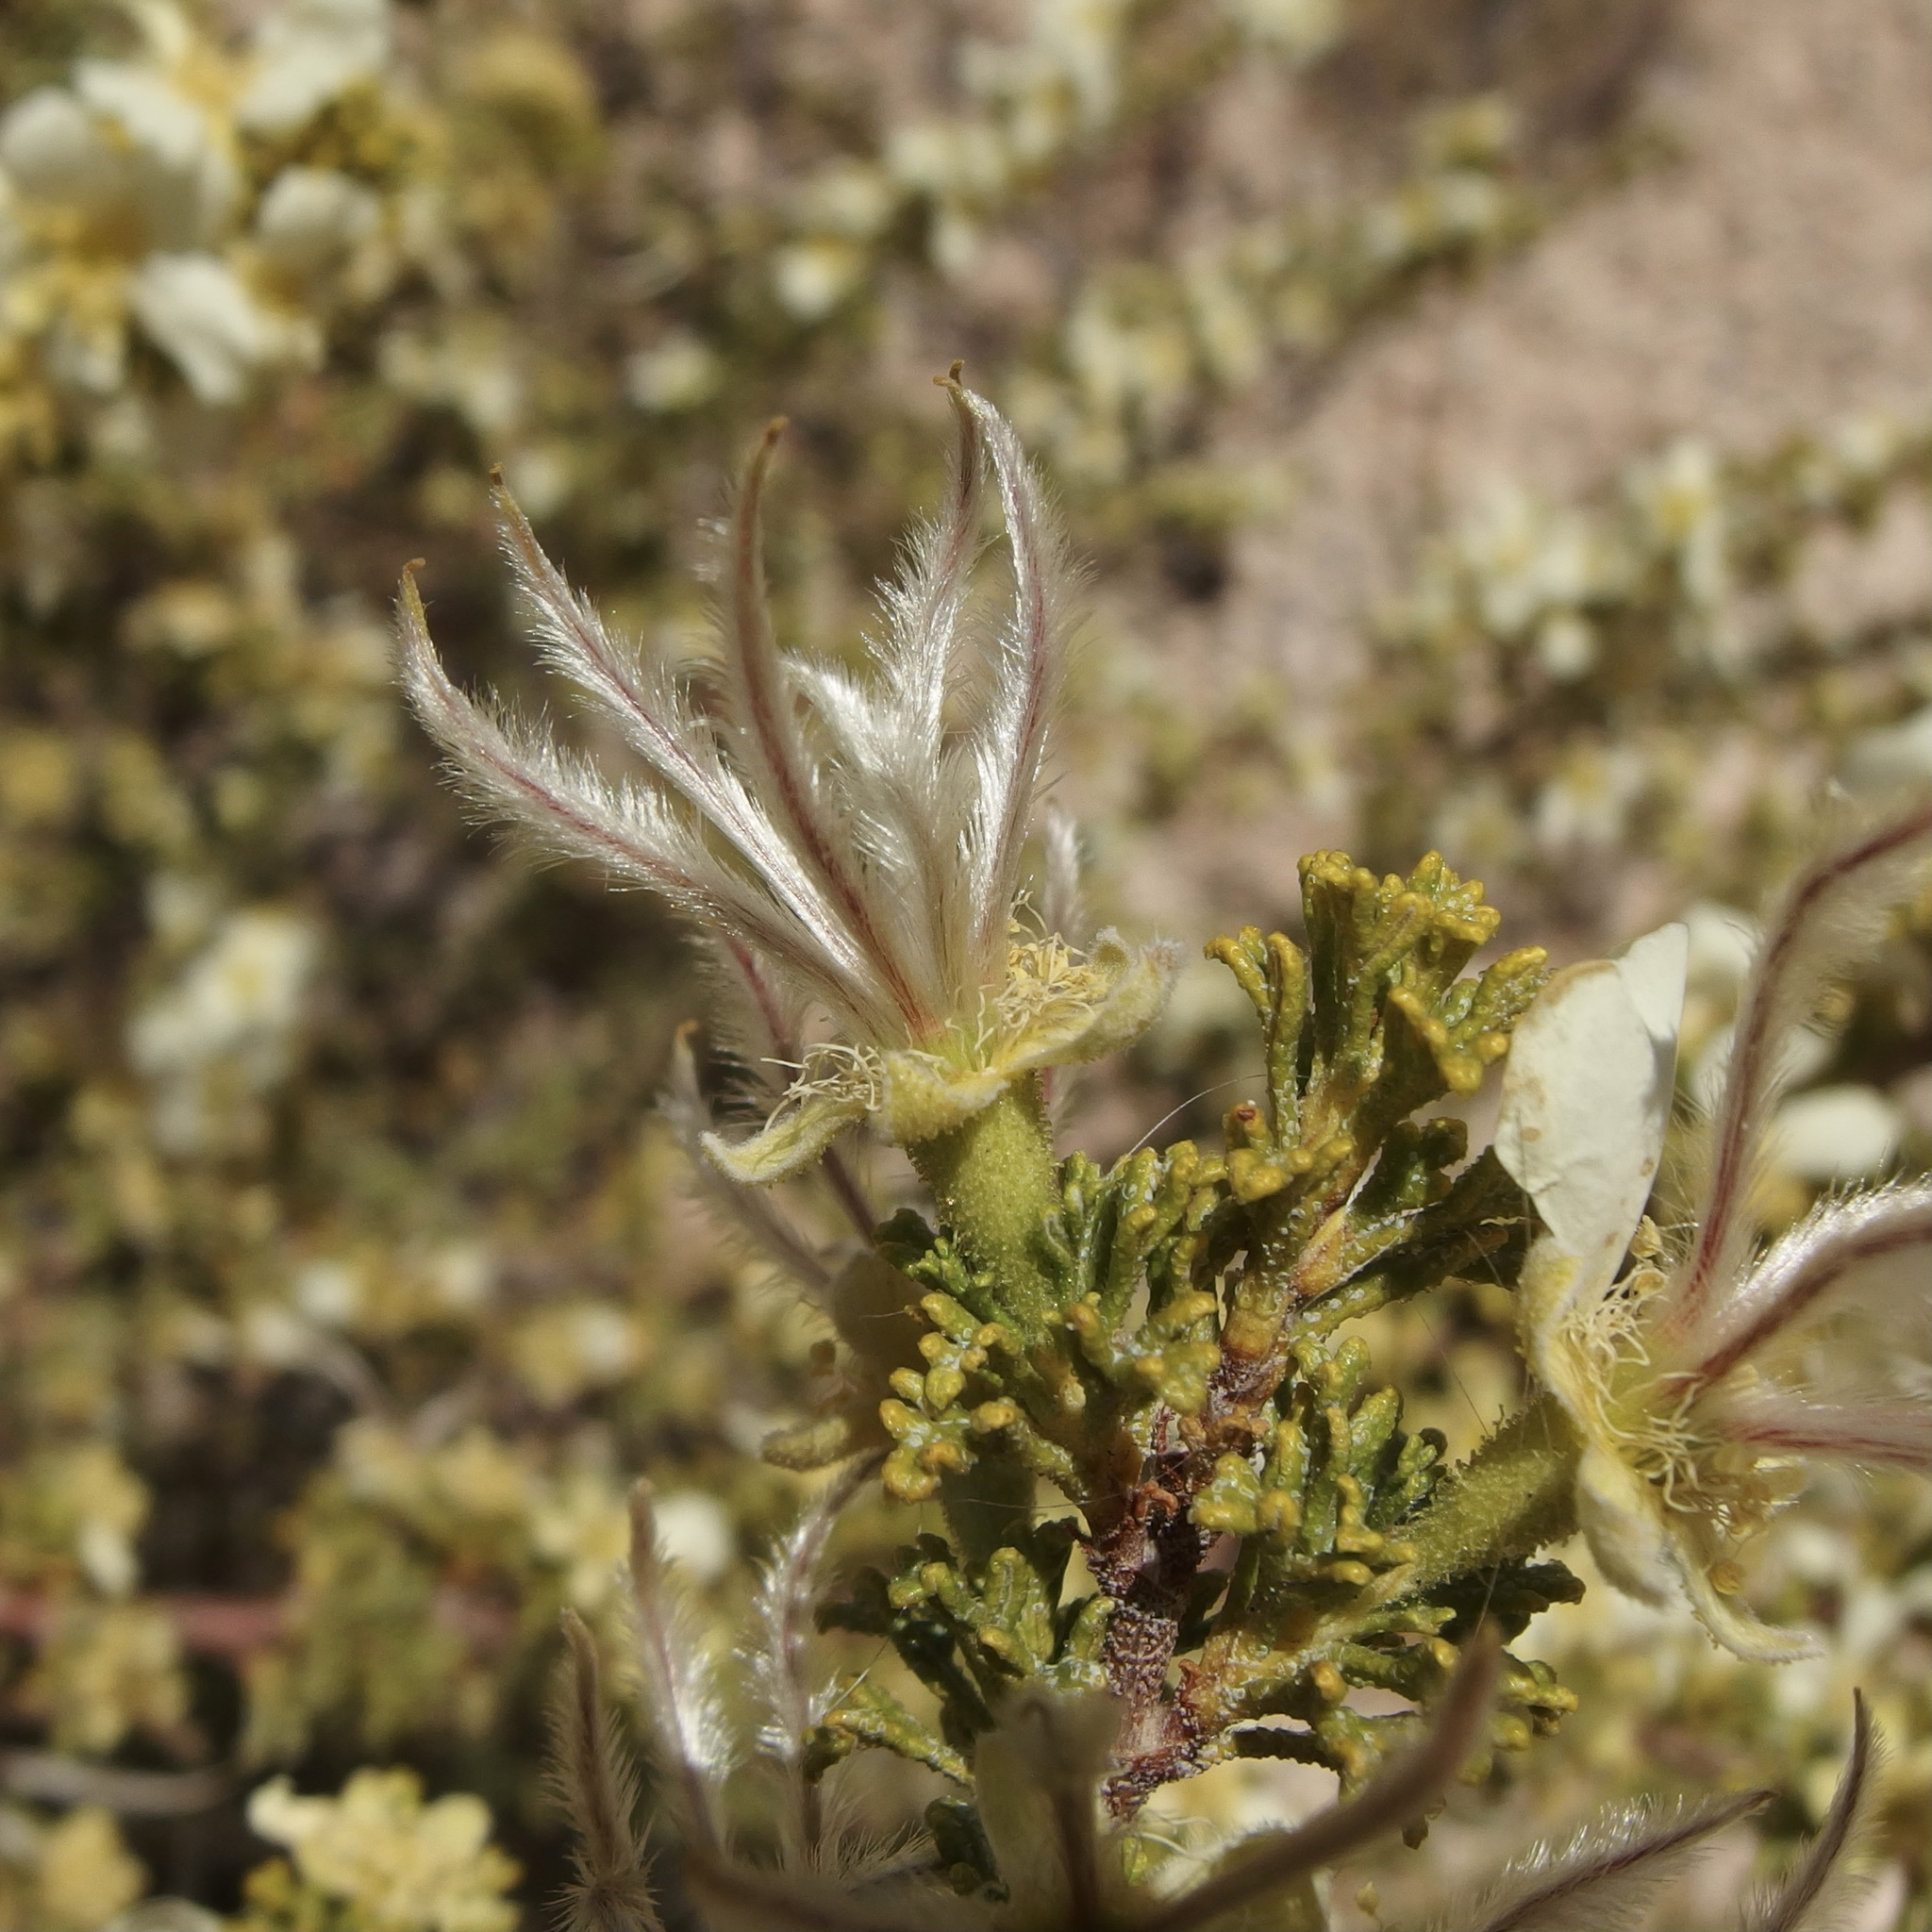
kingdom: Plantae
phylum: Tracheophyta
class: Magnoliopsida
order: Rosales
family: Rosaceae
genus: Purshia
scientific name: Purshia stansburiana
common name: Stansbury's cliffrose
